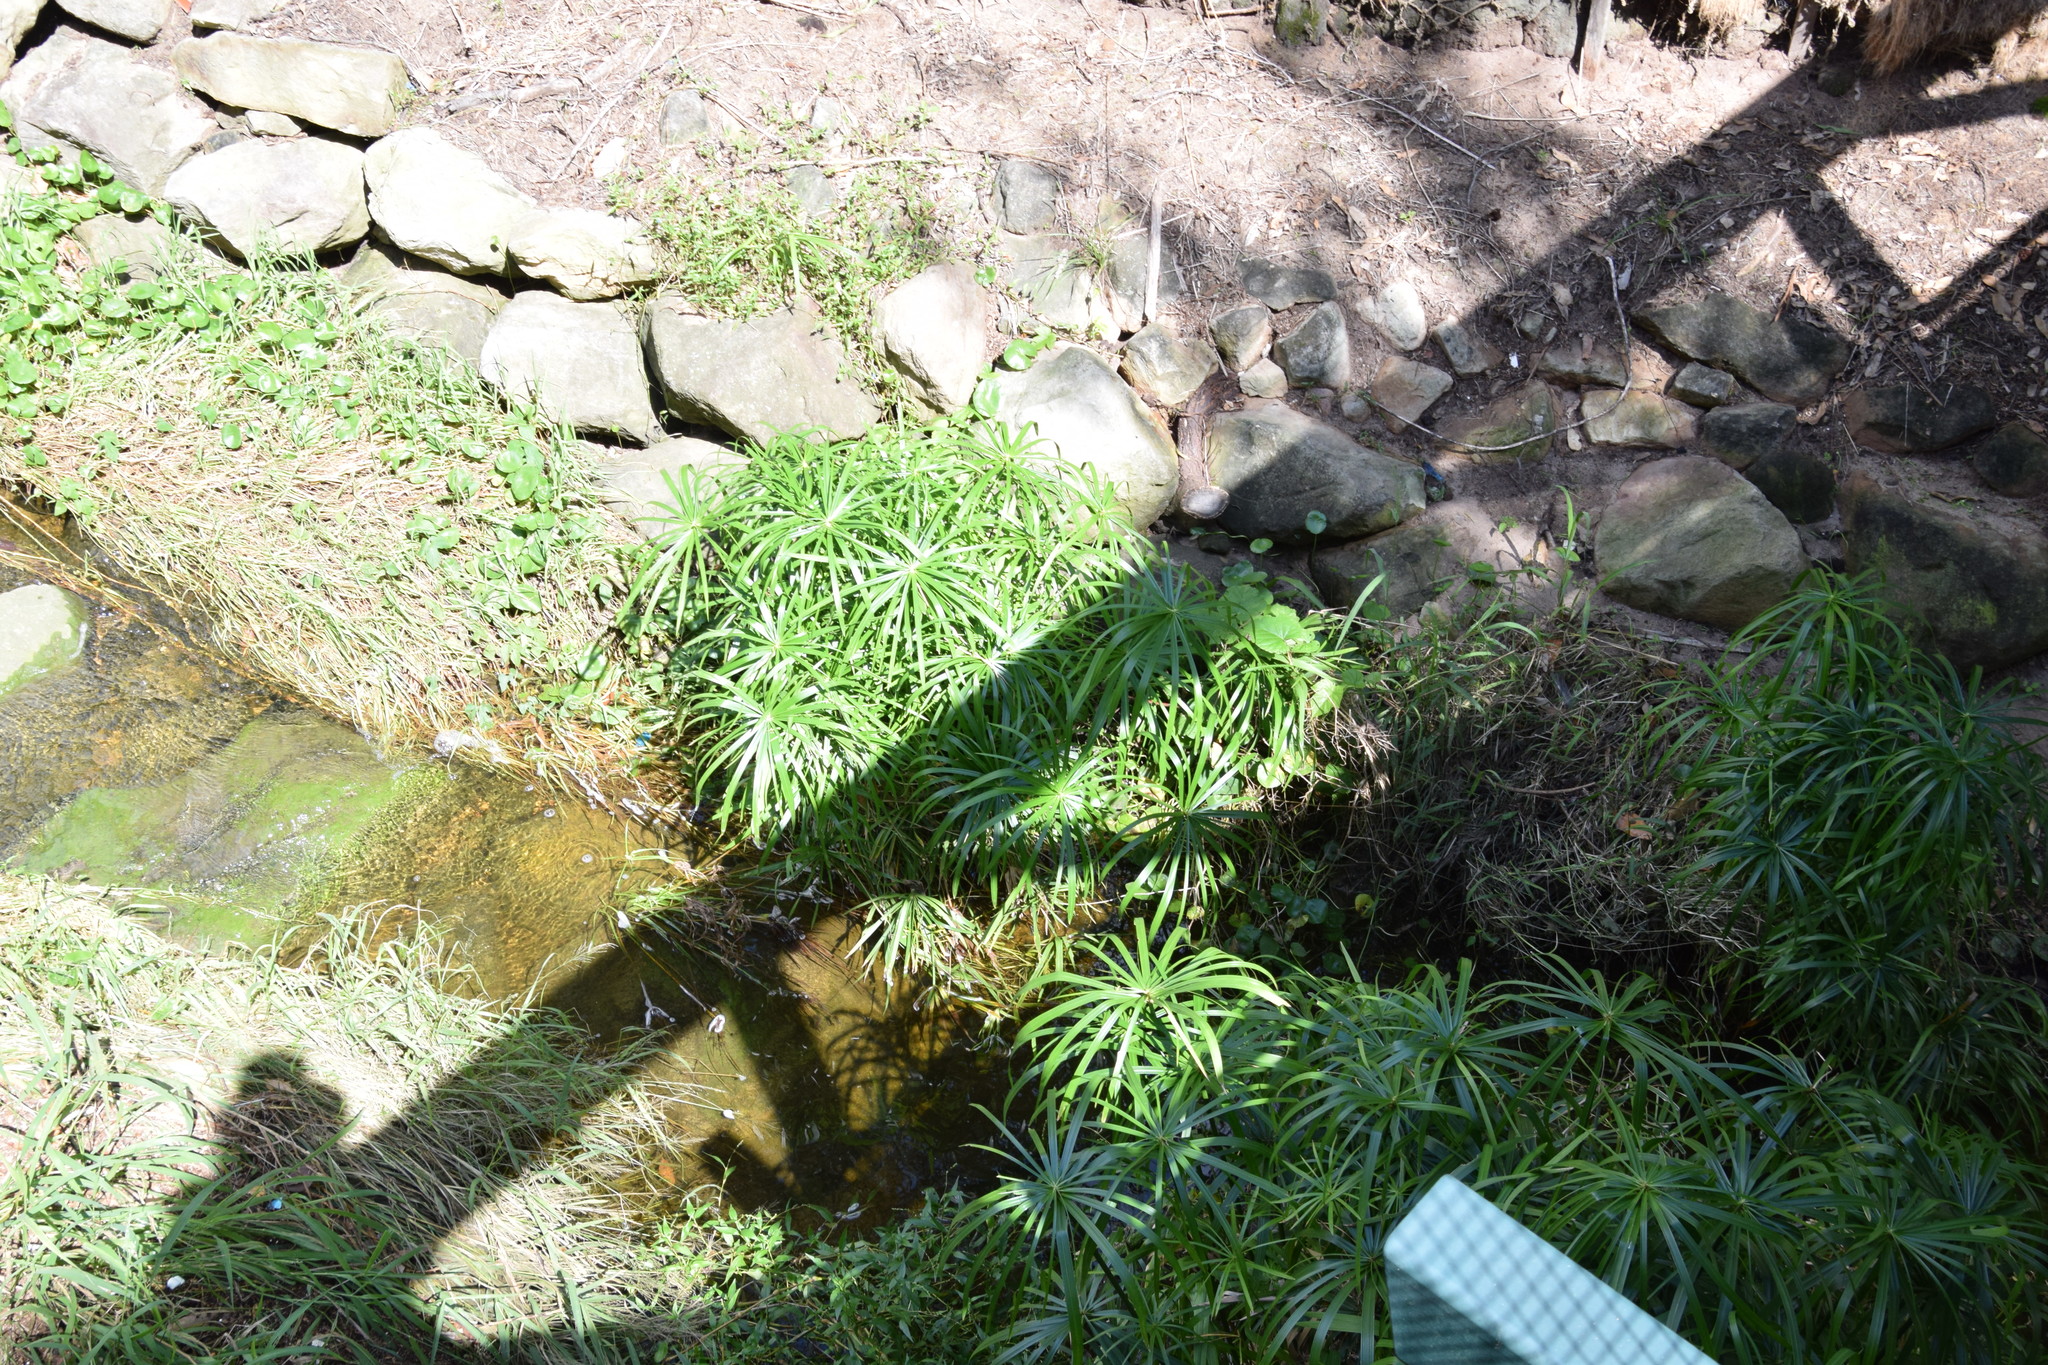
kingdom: Plantae
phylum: Tracheophyta
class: Liliopsida
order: Poales
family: Cyperaceae
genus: Cyperus
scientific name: Cyperus alternifolius
